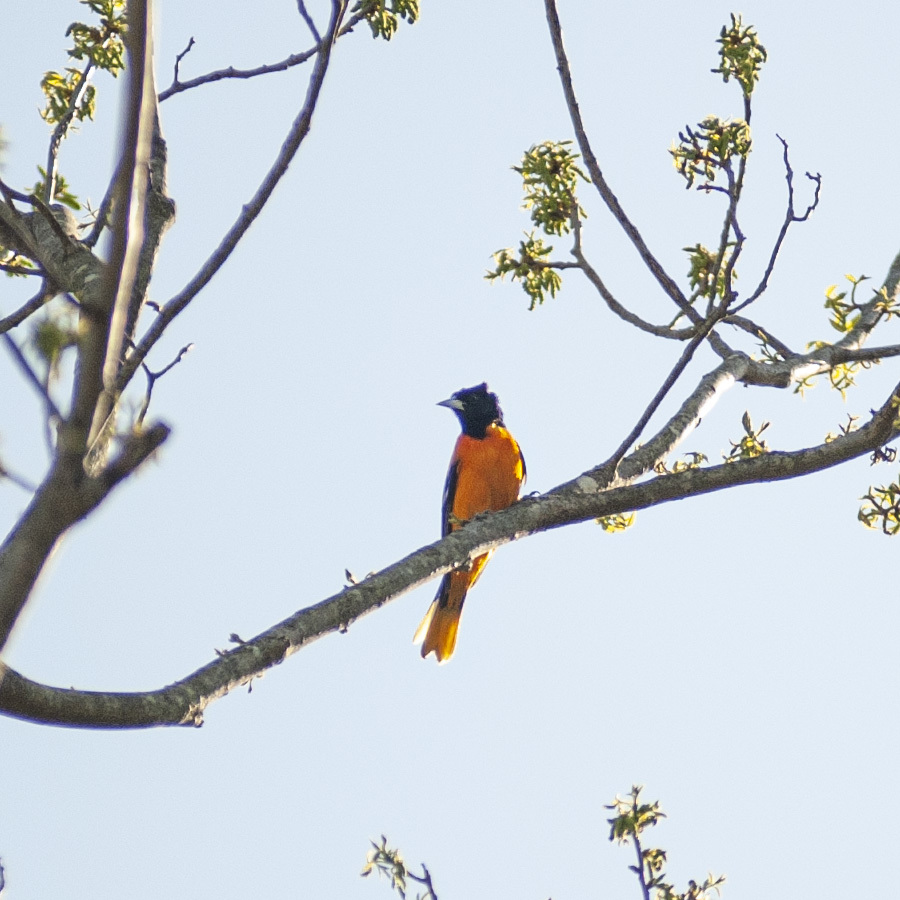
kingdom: Animalia
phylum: Chordata
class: Aves
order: Passeriformes
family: Icteridae
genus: Icterus
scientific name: Icterus galbula
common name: Baltimore oriole
